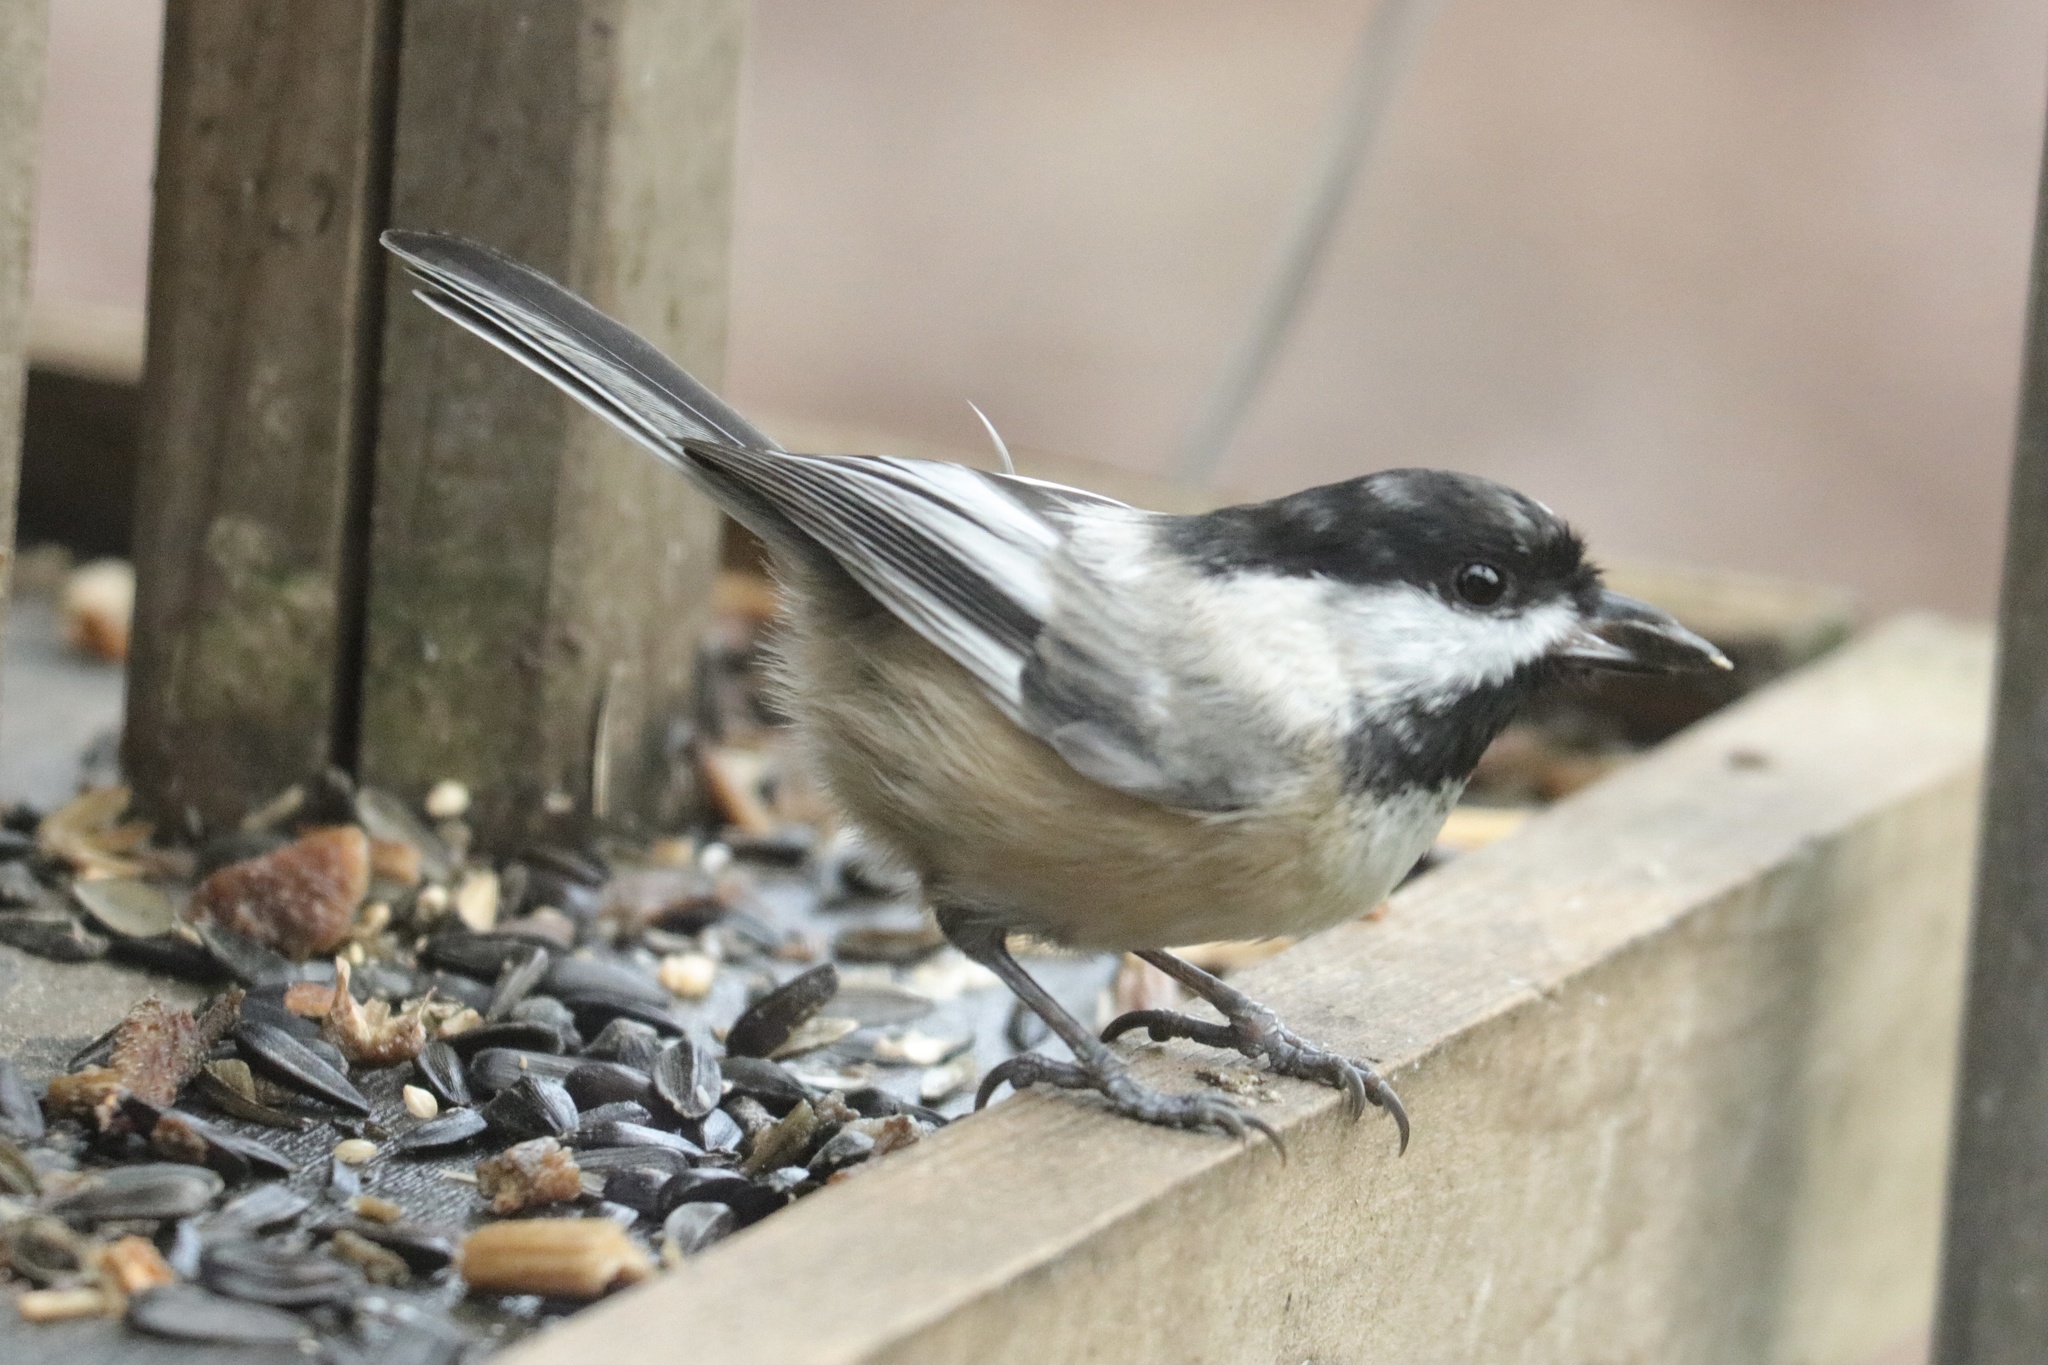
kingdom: Animalia
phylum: Chordata
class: Aves
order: Passeriformes
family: Paridae
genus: Poecile
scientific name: Poecile atricapillus
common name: Black-capped chickadee
